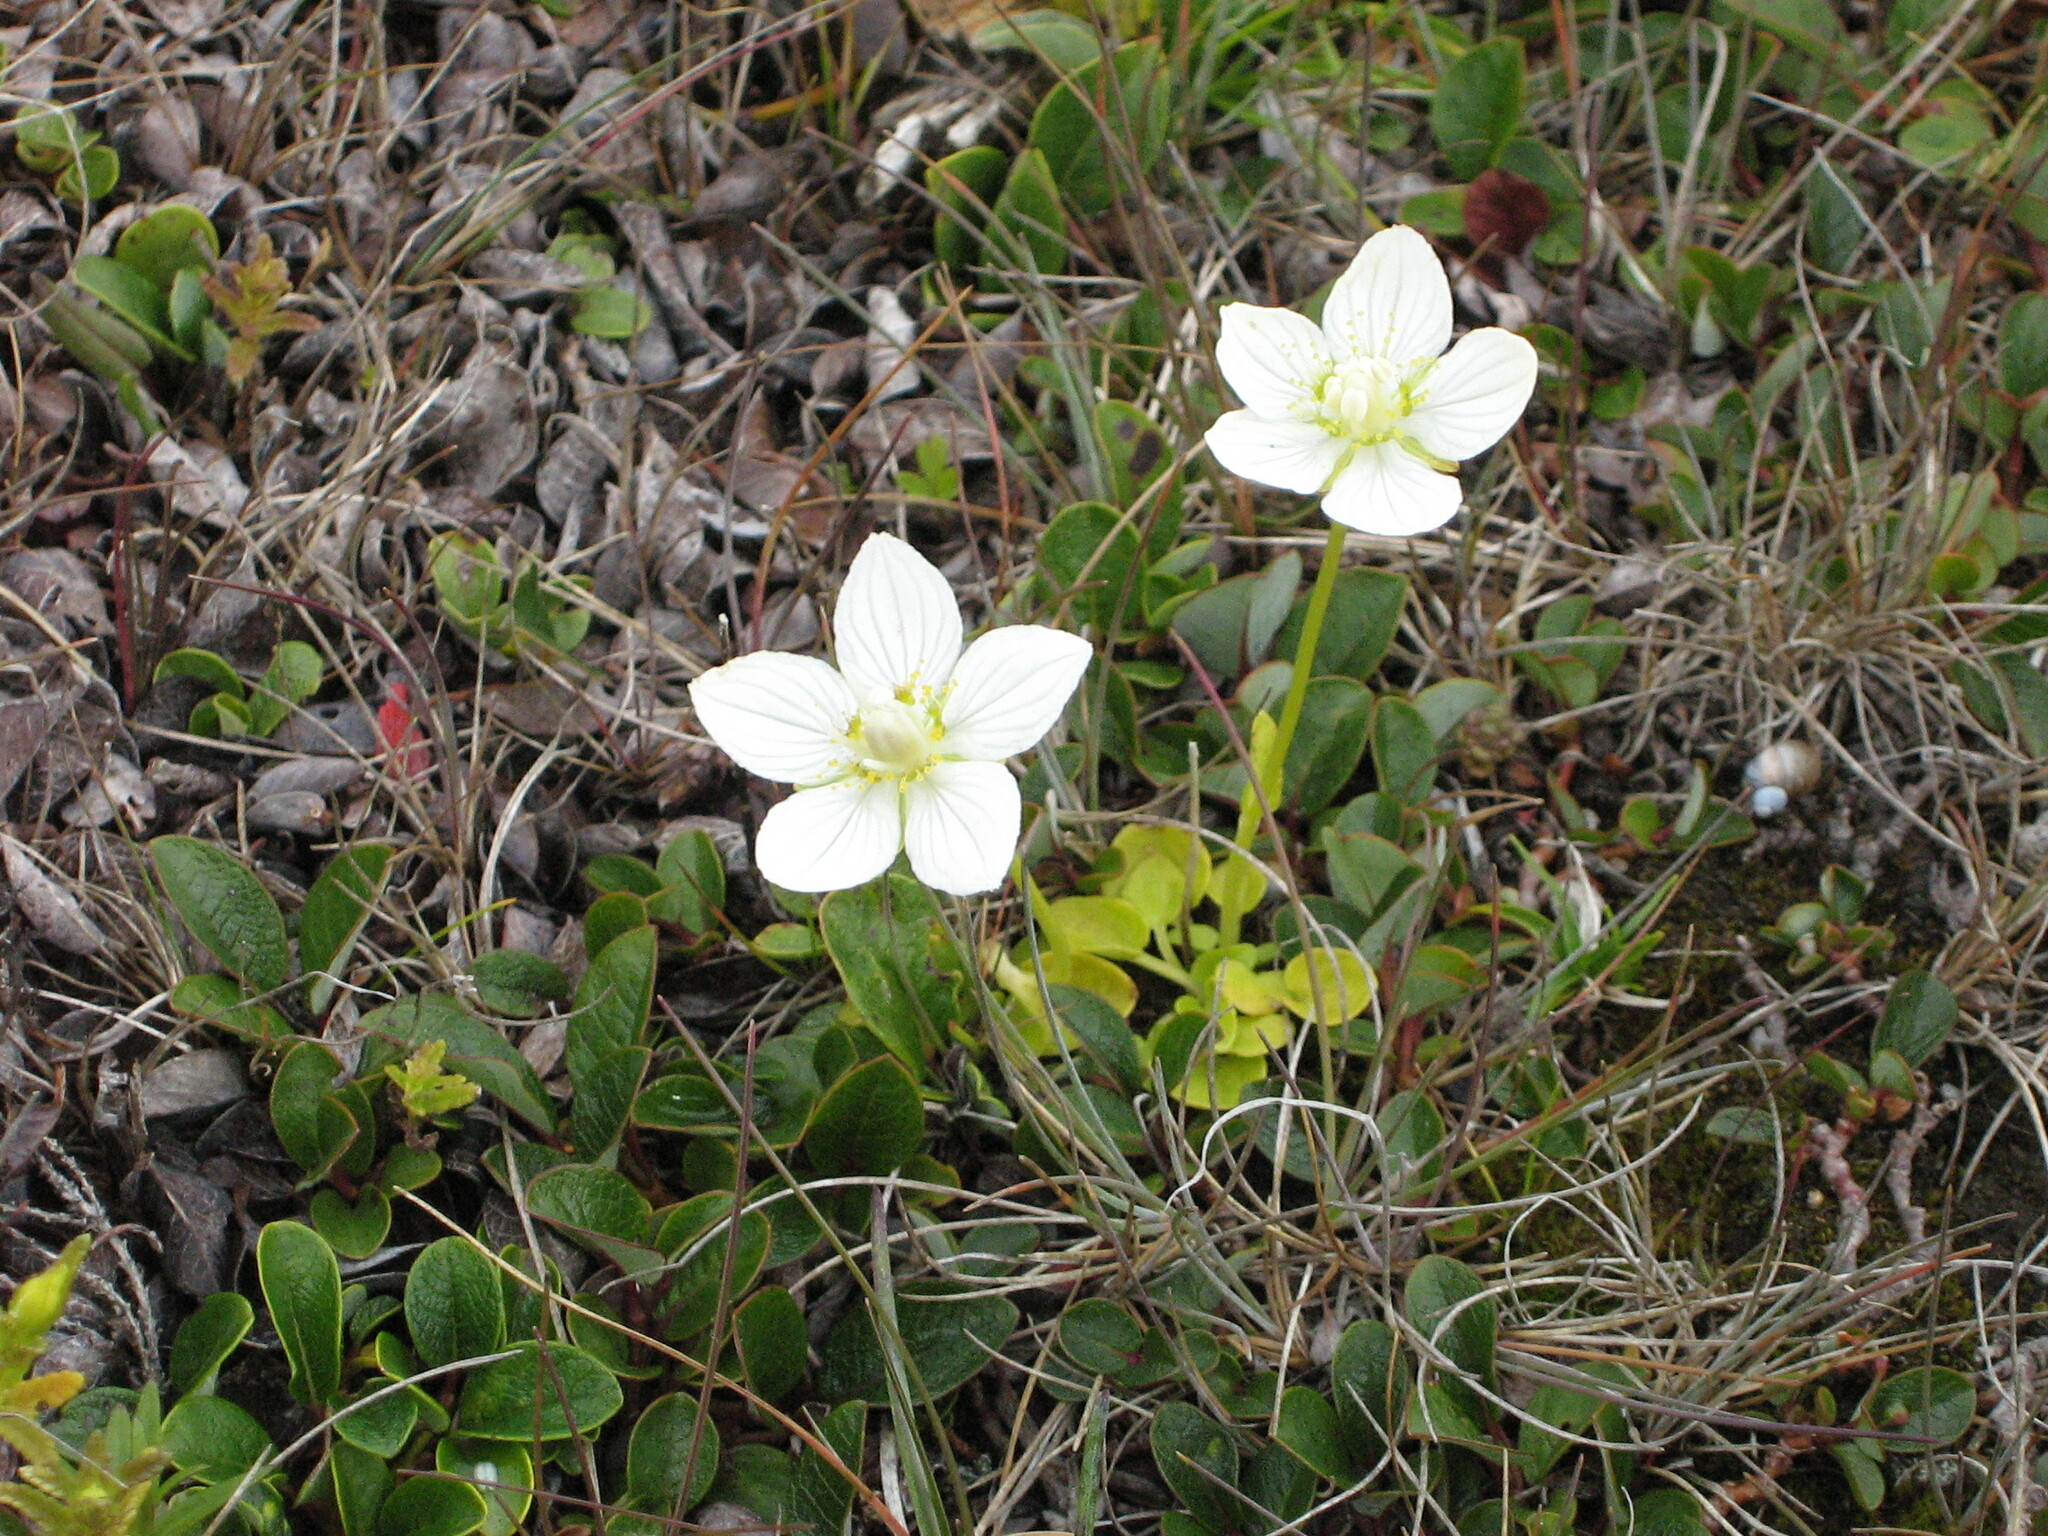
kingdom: Plantae
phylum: Tracheophyta
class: Magnoliopsida
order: Celastrales
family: Parnassiaceae
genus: Parnassia
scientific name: Parnassia palustris
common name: Grass-of-parnassus
